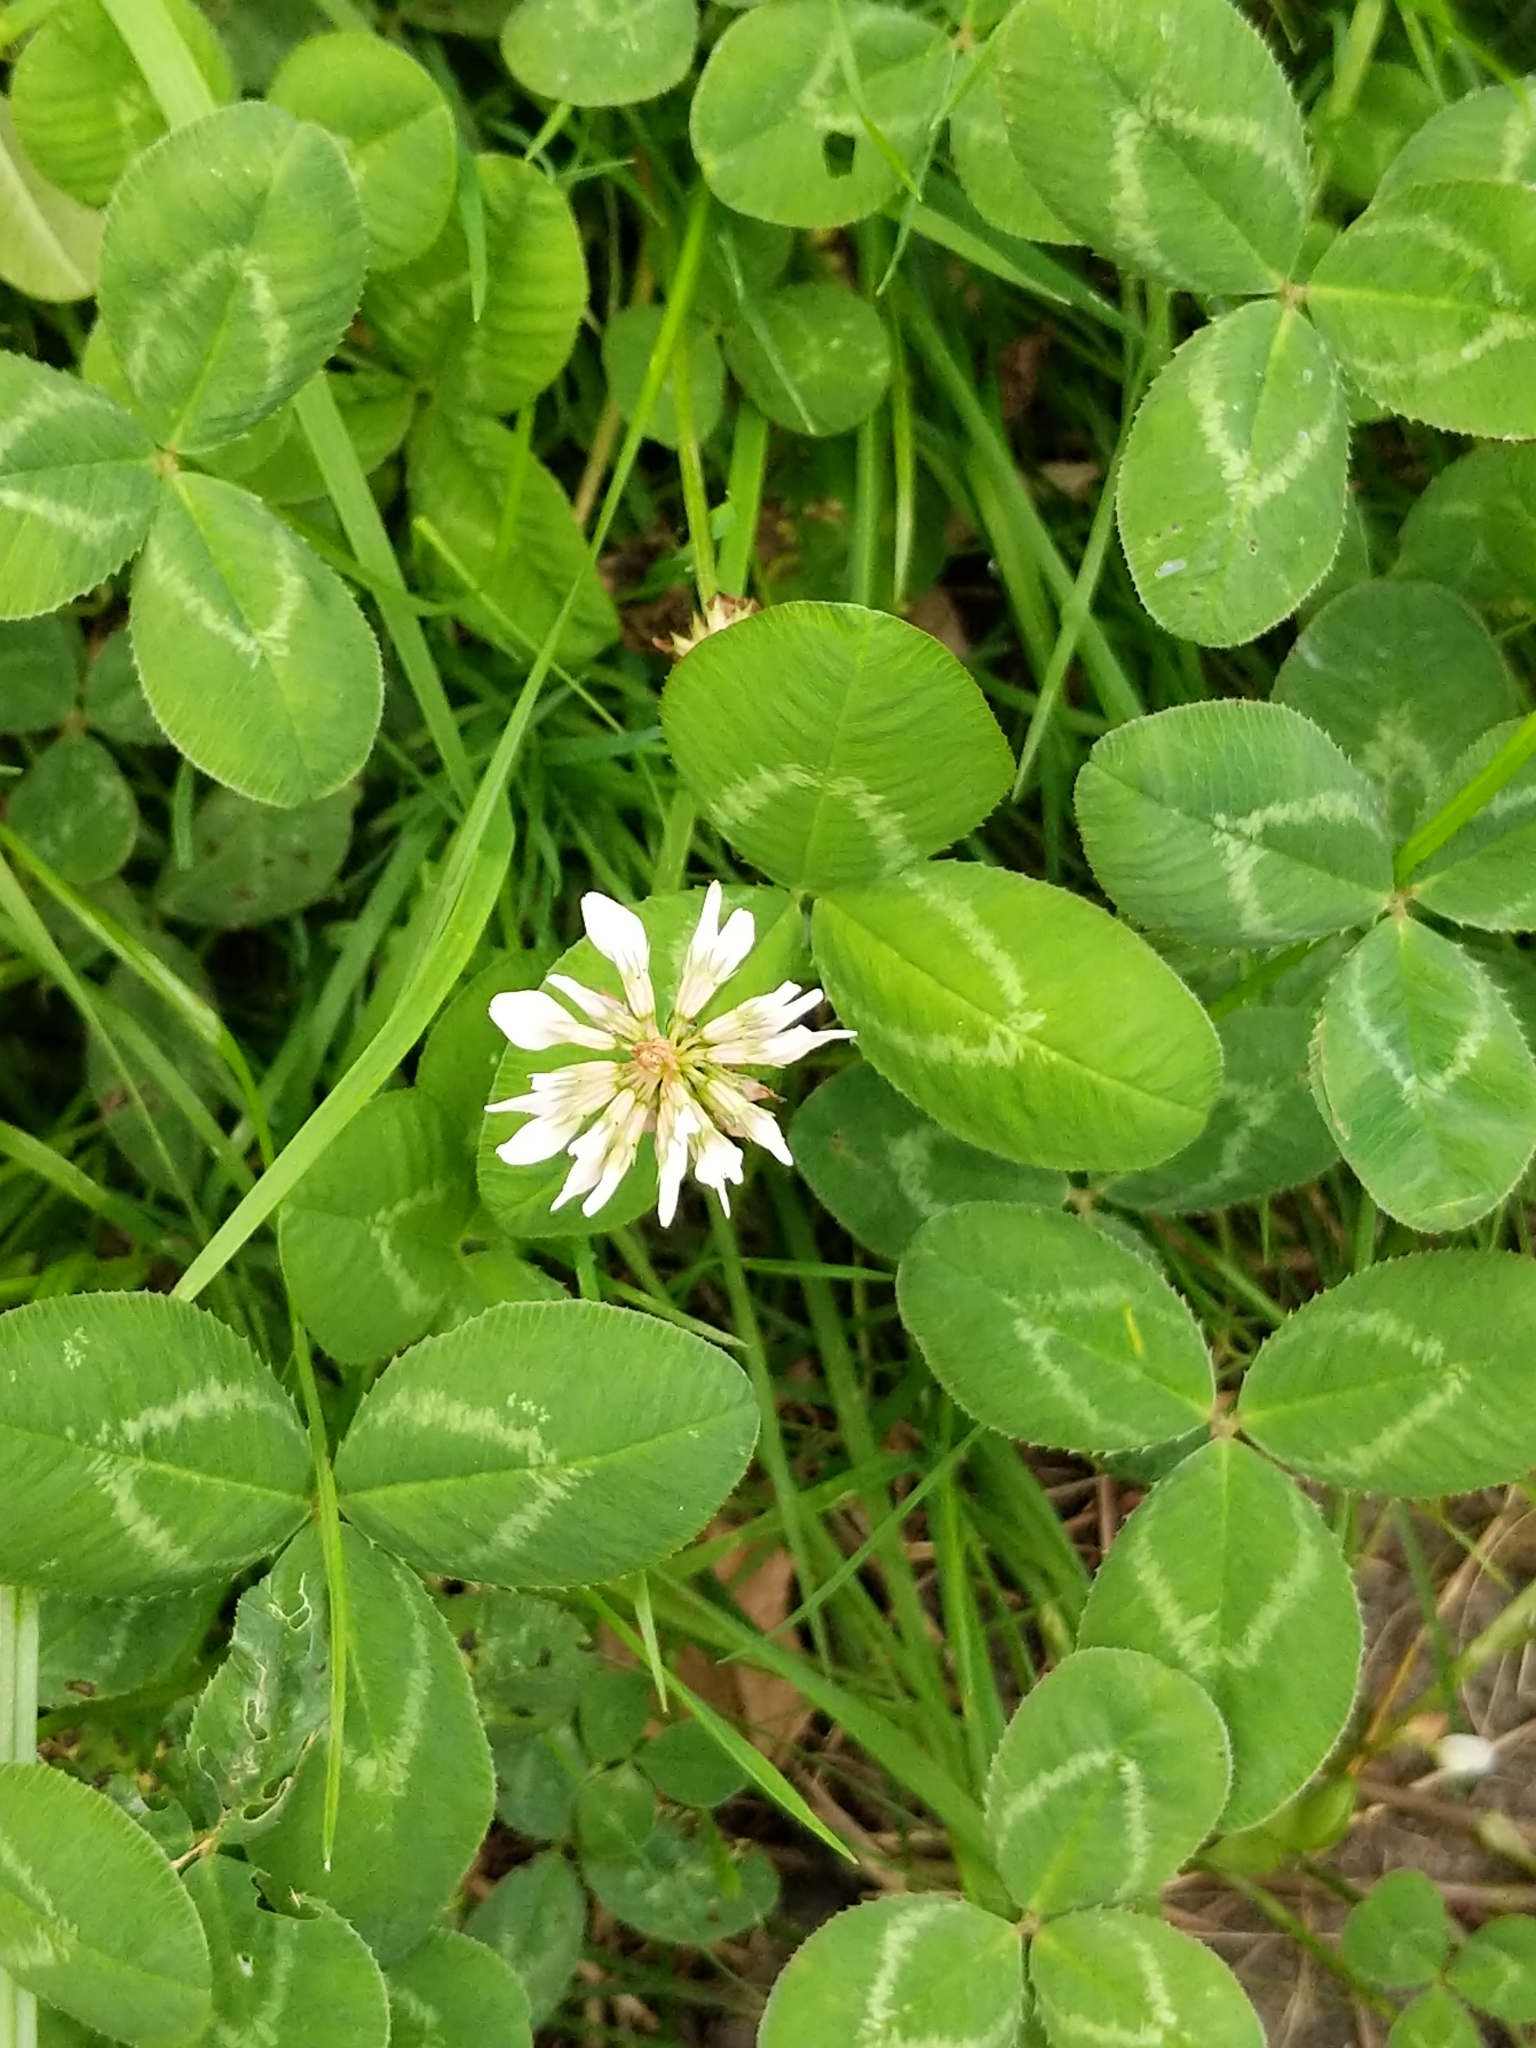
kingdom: Plantae
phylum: Tracheophyta
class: Magnoliopsida
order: Fabales
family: Fabaceae
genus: Trifolium
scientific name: Trifolium repens
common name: White clover
